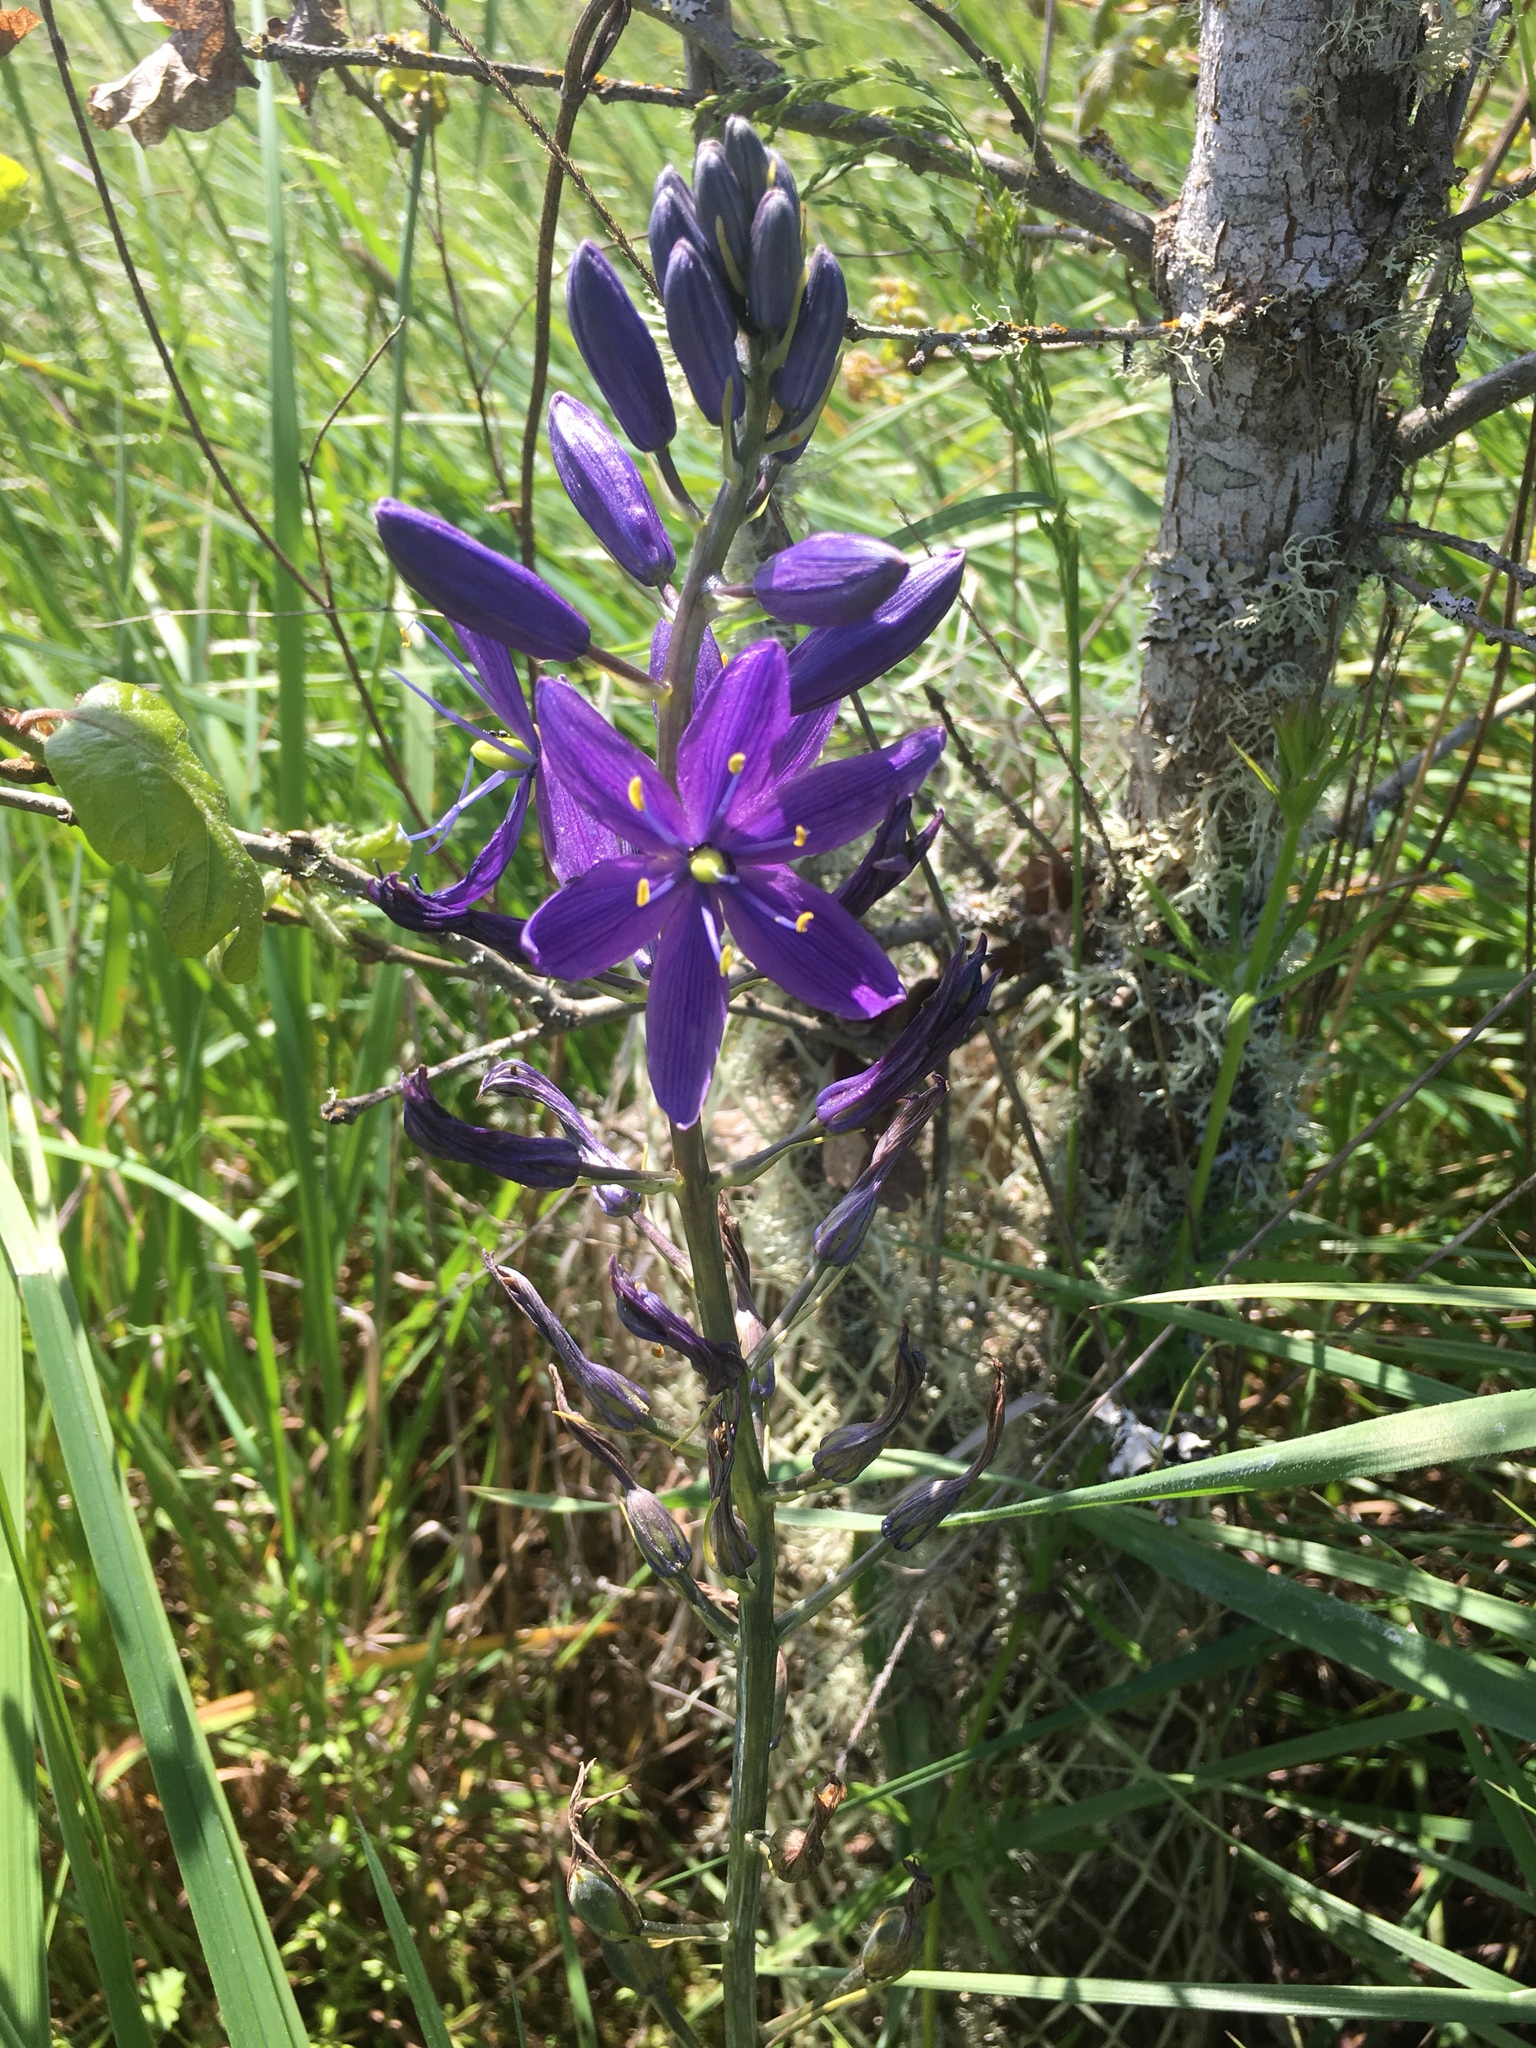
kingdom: Plantae
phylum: Tracheophyta
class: Liliopsida
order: Asparagales
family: Asparagaceae
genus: Camassia
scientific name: Camassia leichtlinii
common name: Leichtlin's camas
